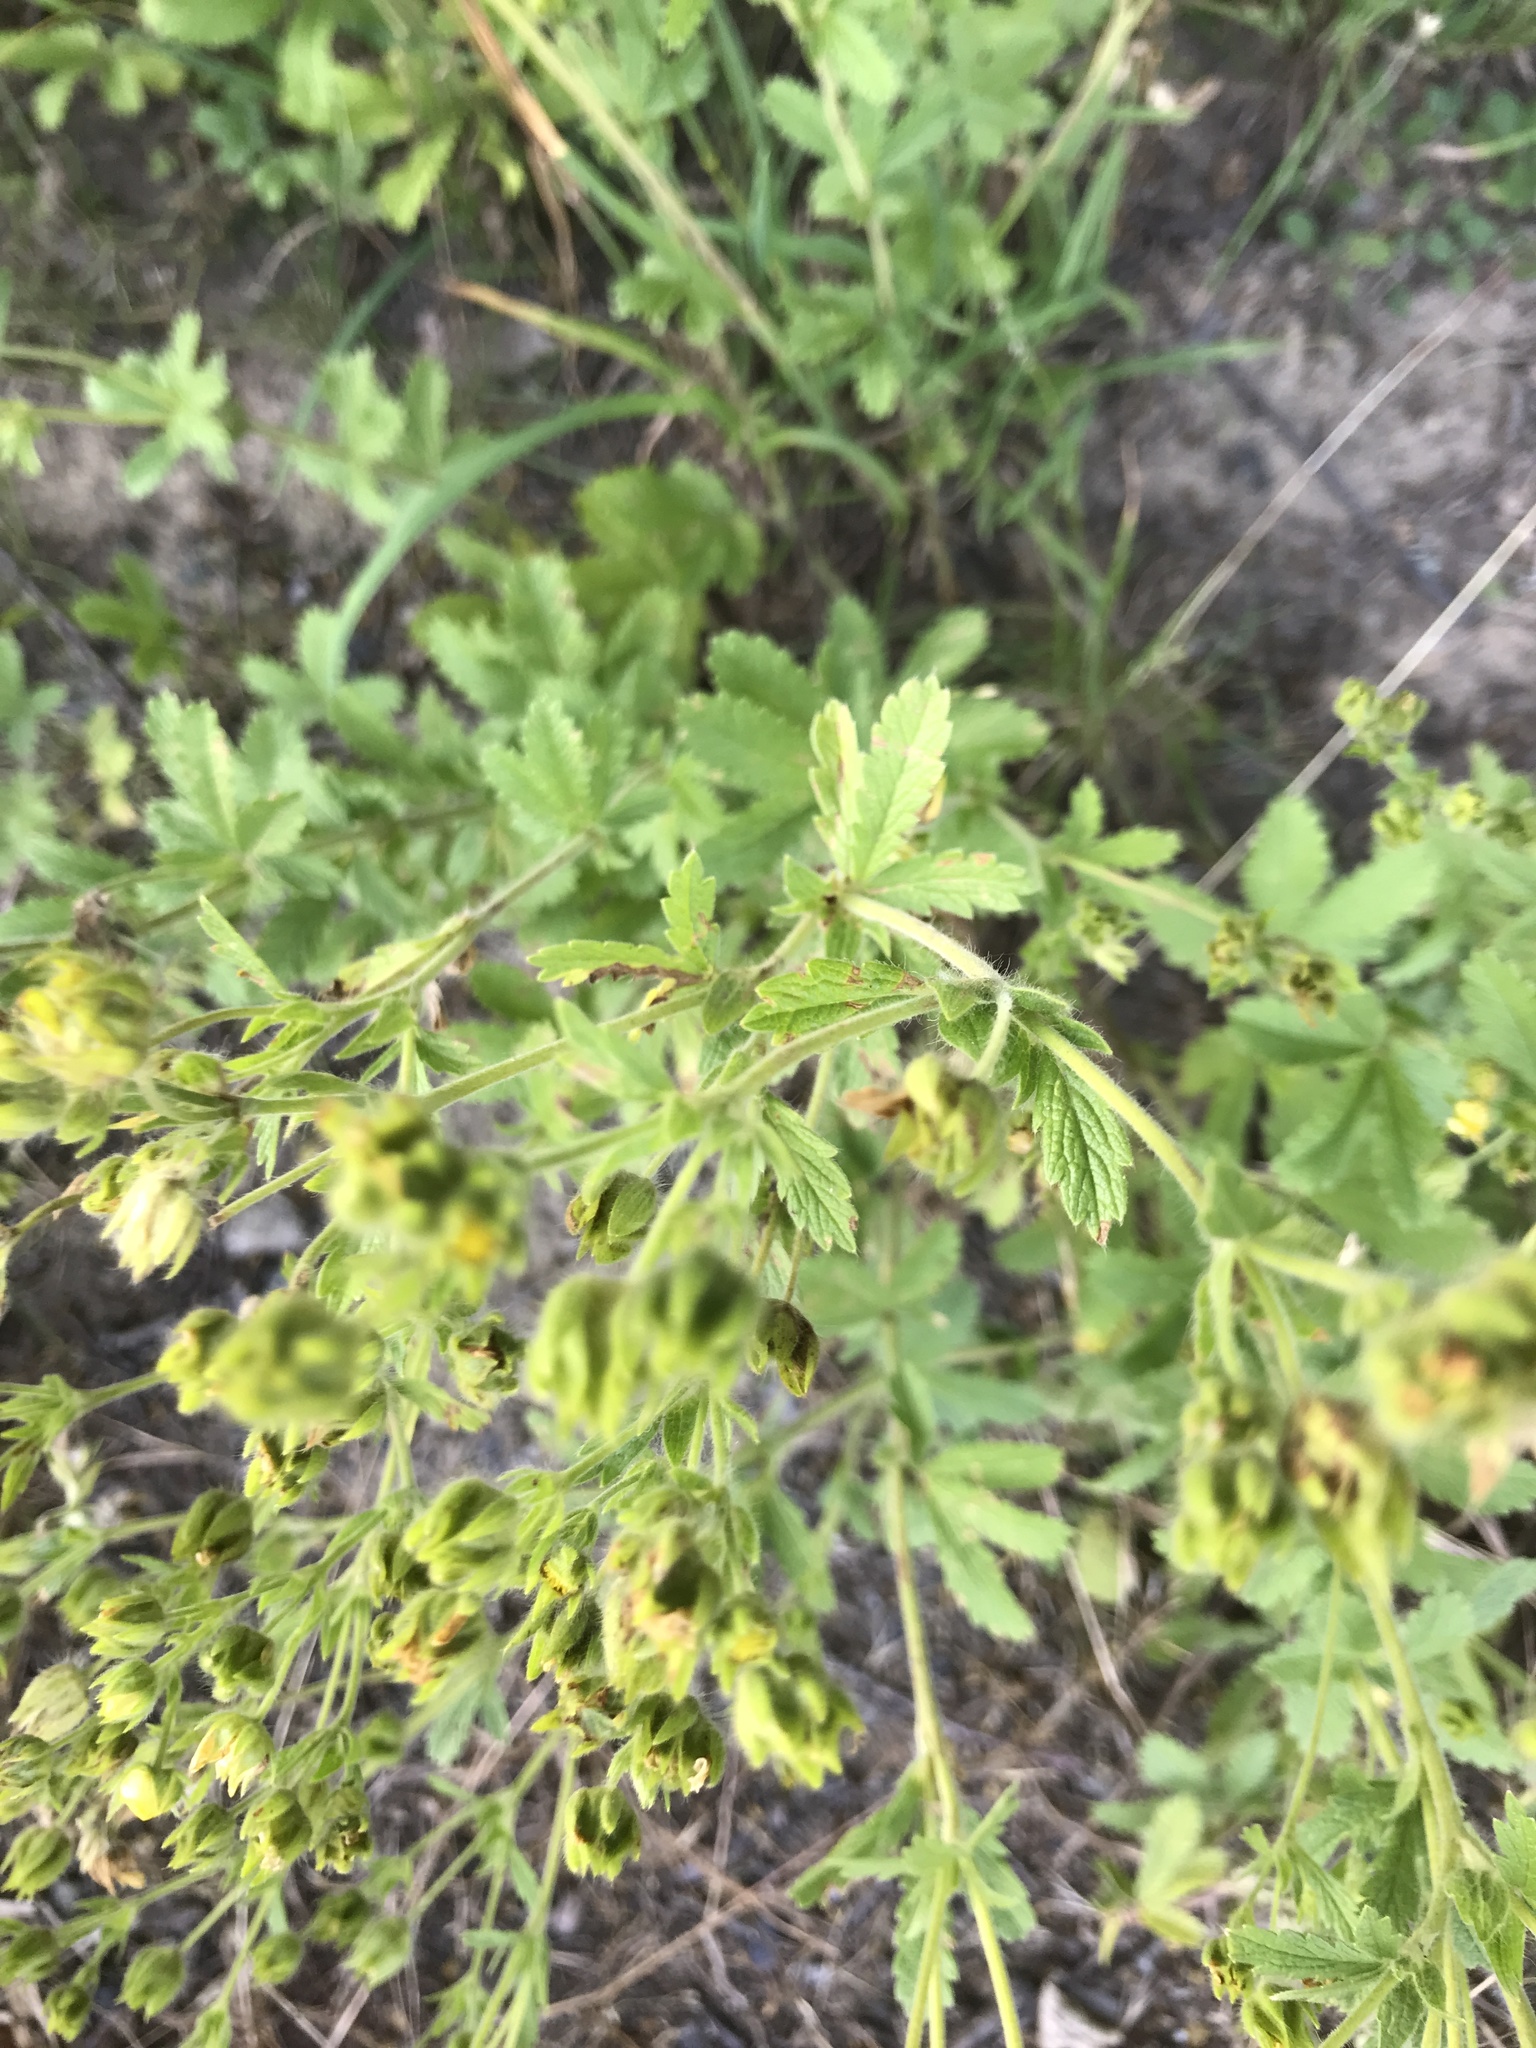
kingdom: Plantae
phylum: Tracheophyta
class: Magnoliopsida
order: Rosales
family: Rosaceae
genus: Potentilla
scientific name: Potentilla intermedia
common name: Downy cinquefoil
